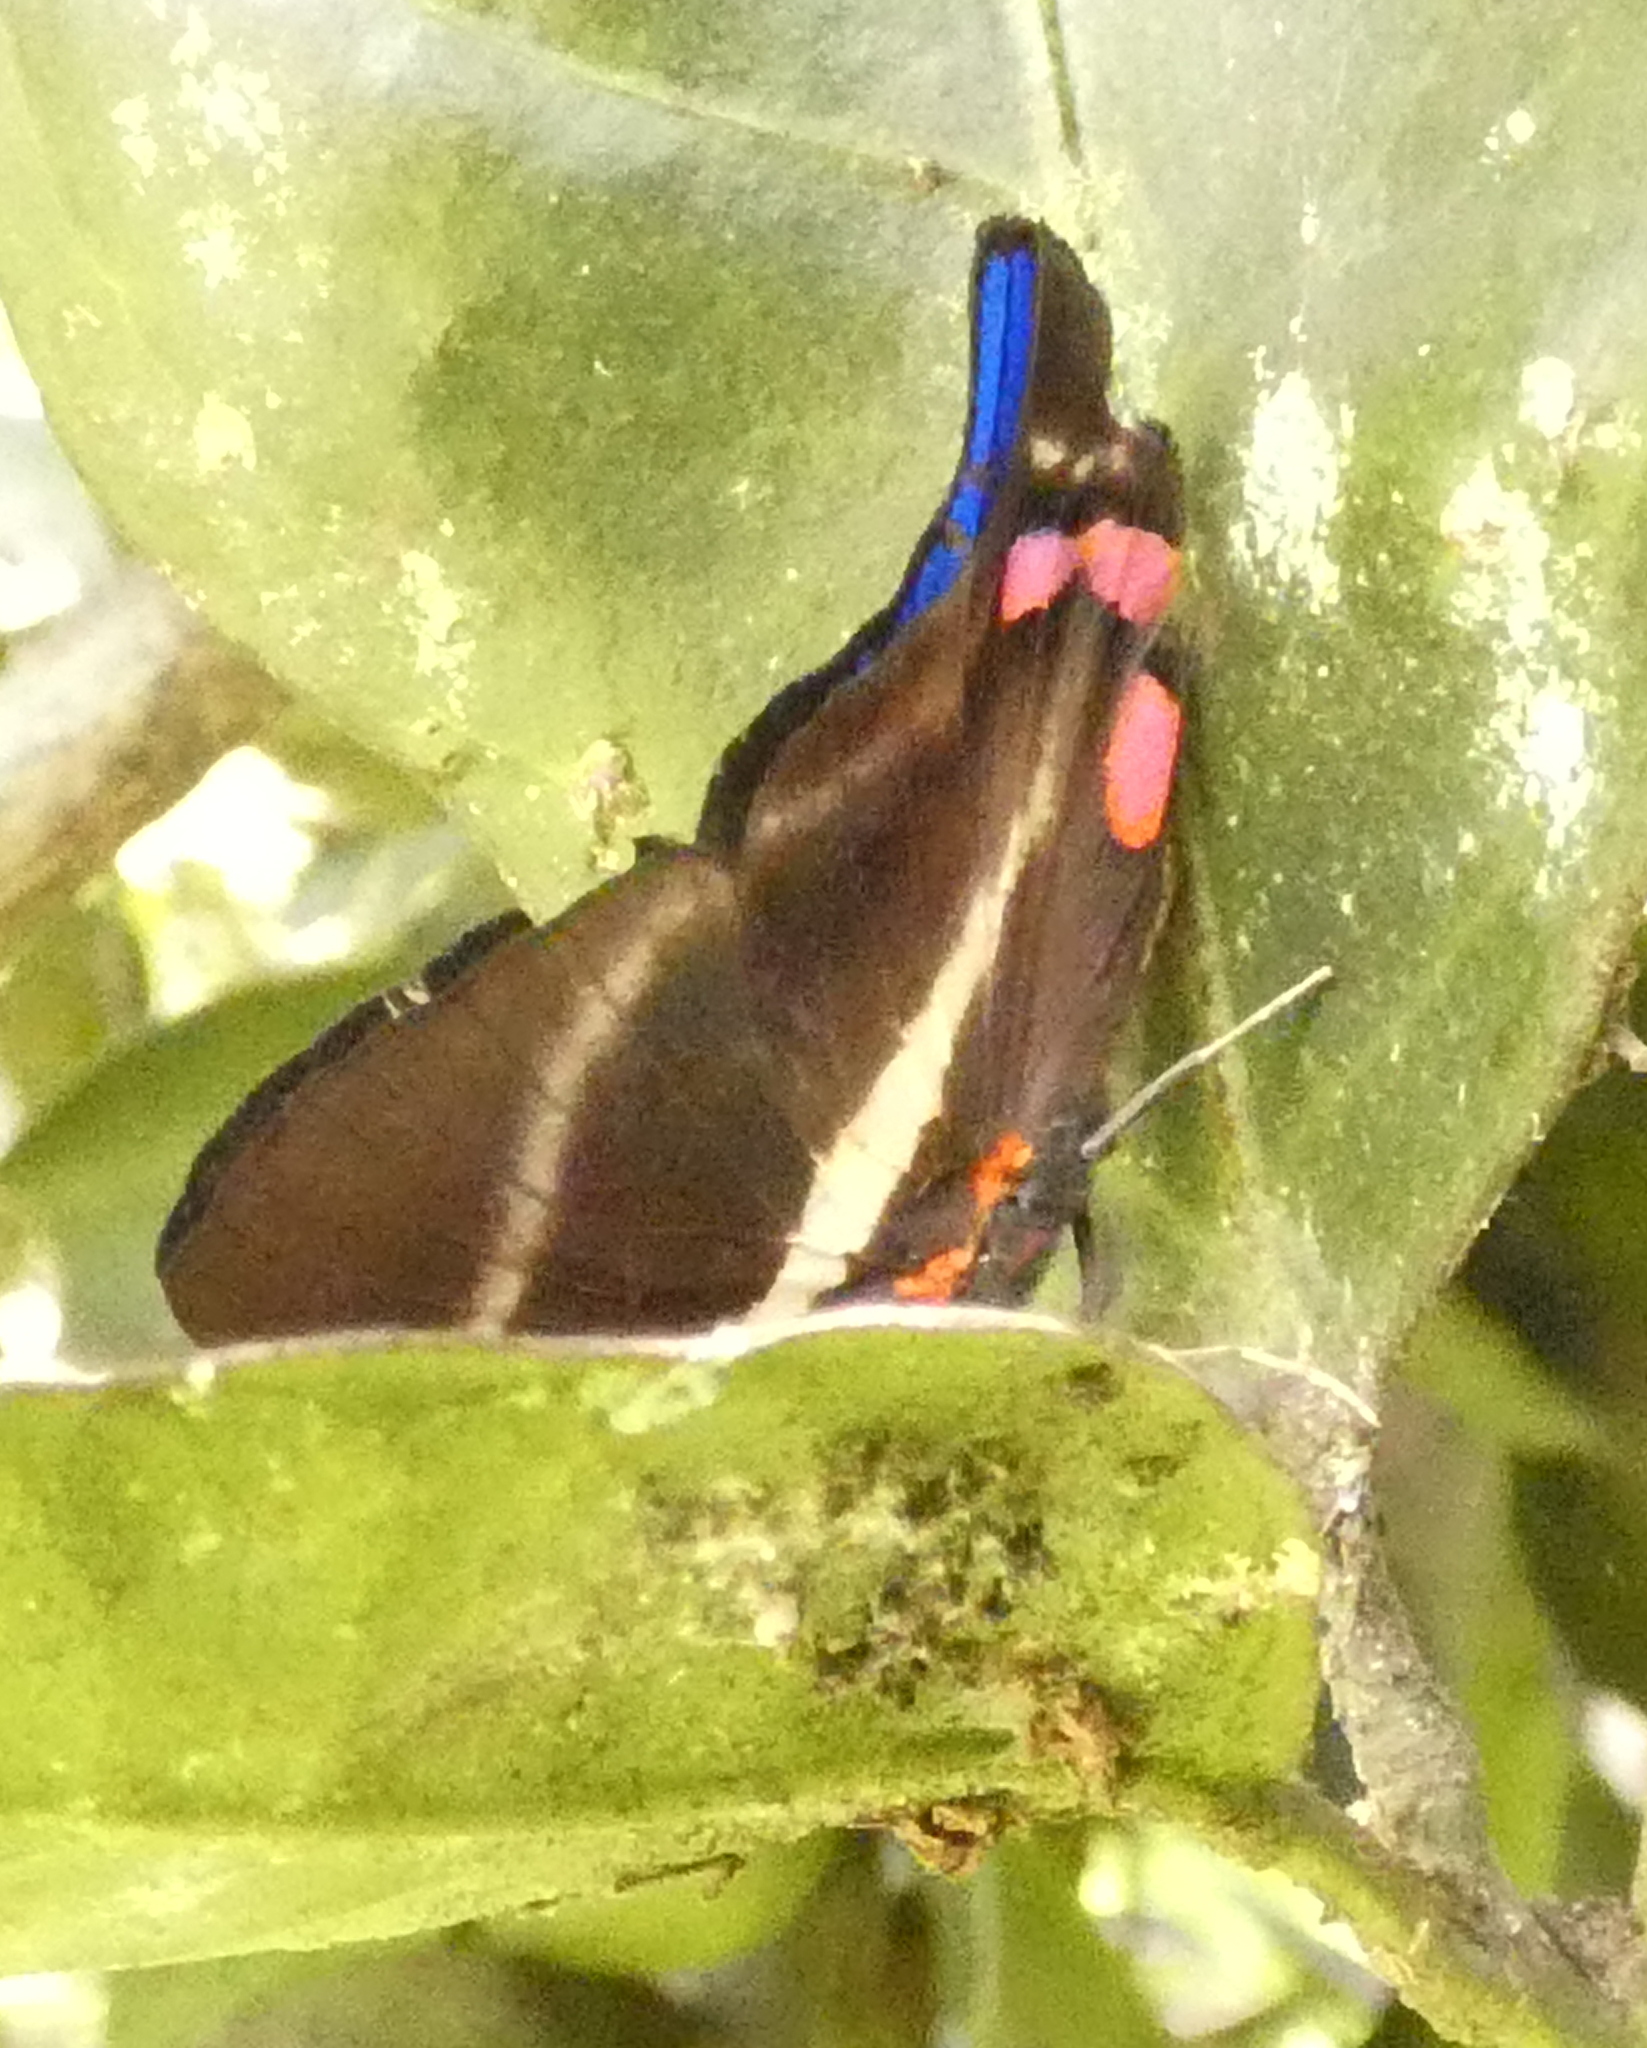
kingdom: Animalia
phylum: Arthropoda
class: Insecta
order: Lepidoptera
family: Riodinidae
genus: Rhetus
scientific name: Rhetus periander
